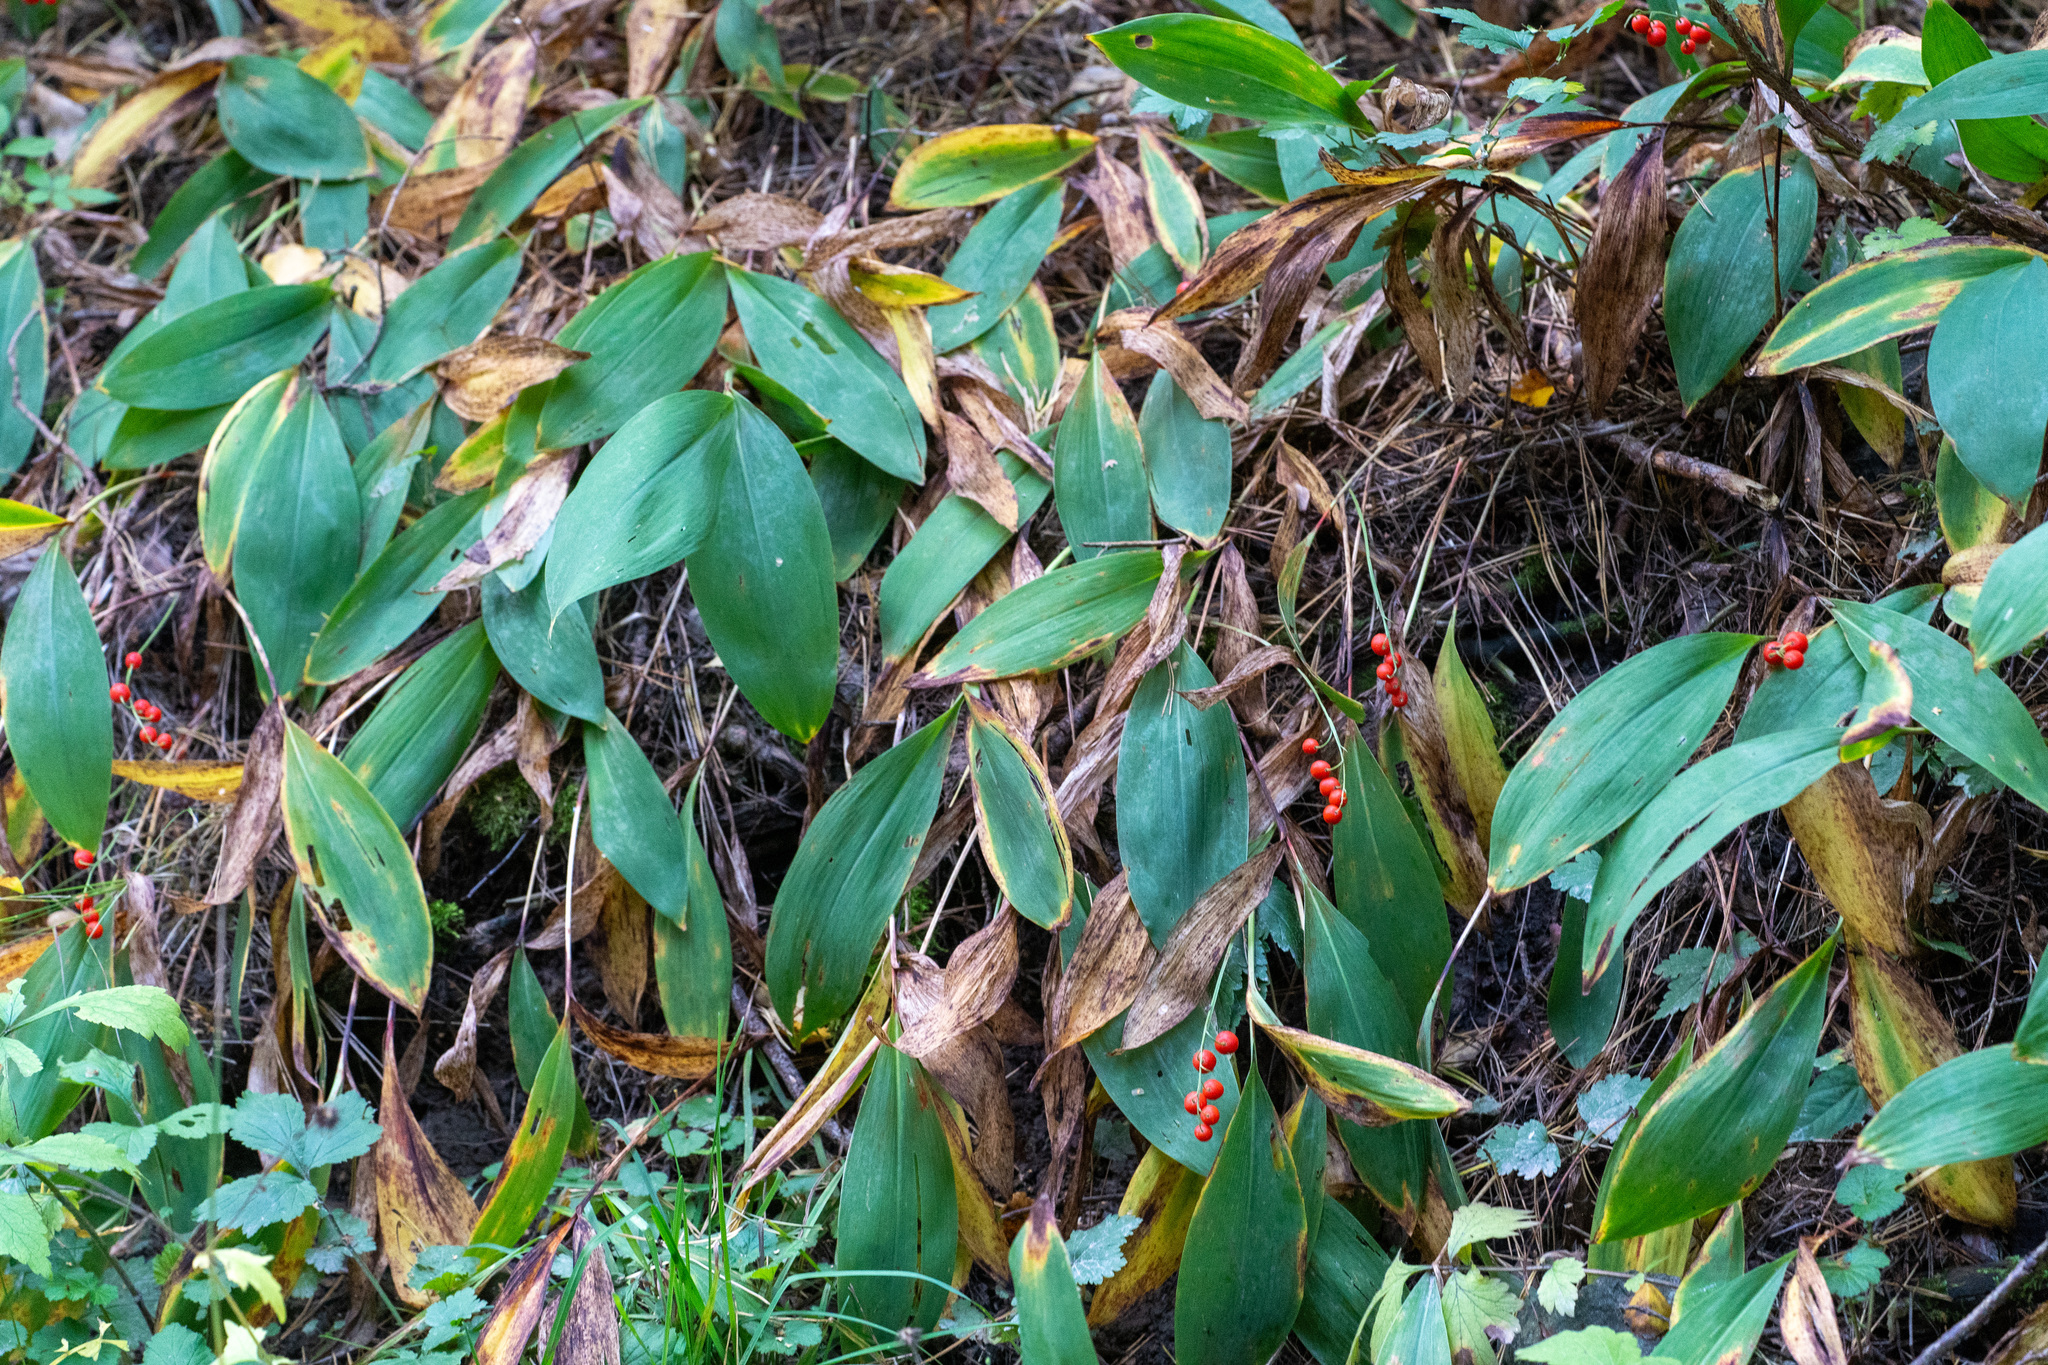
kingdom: Plantae
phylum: Tracheophyta
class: Liliopsida
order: Asparagales
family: Asparagaceae
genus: Convallaria
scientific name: Convallaria majalis
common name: Lily-of-the-valley
